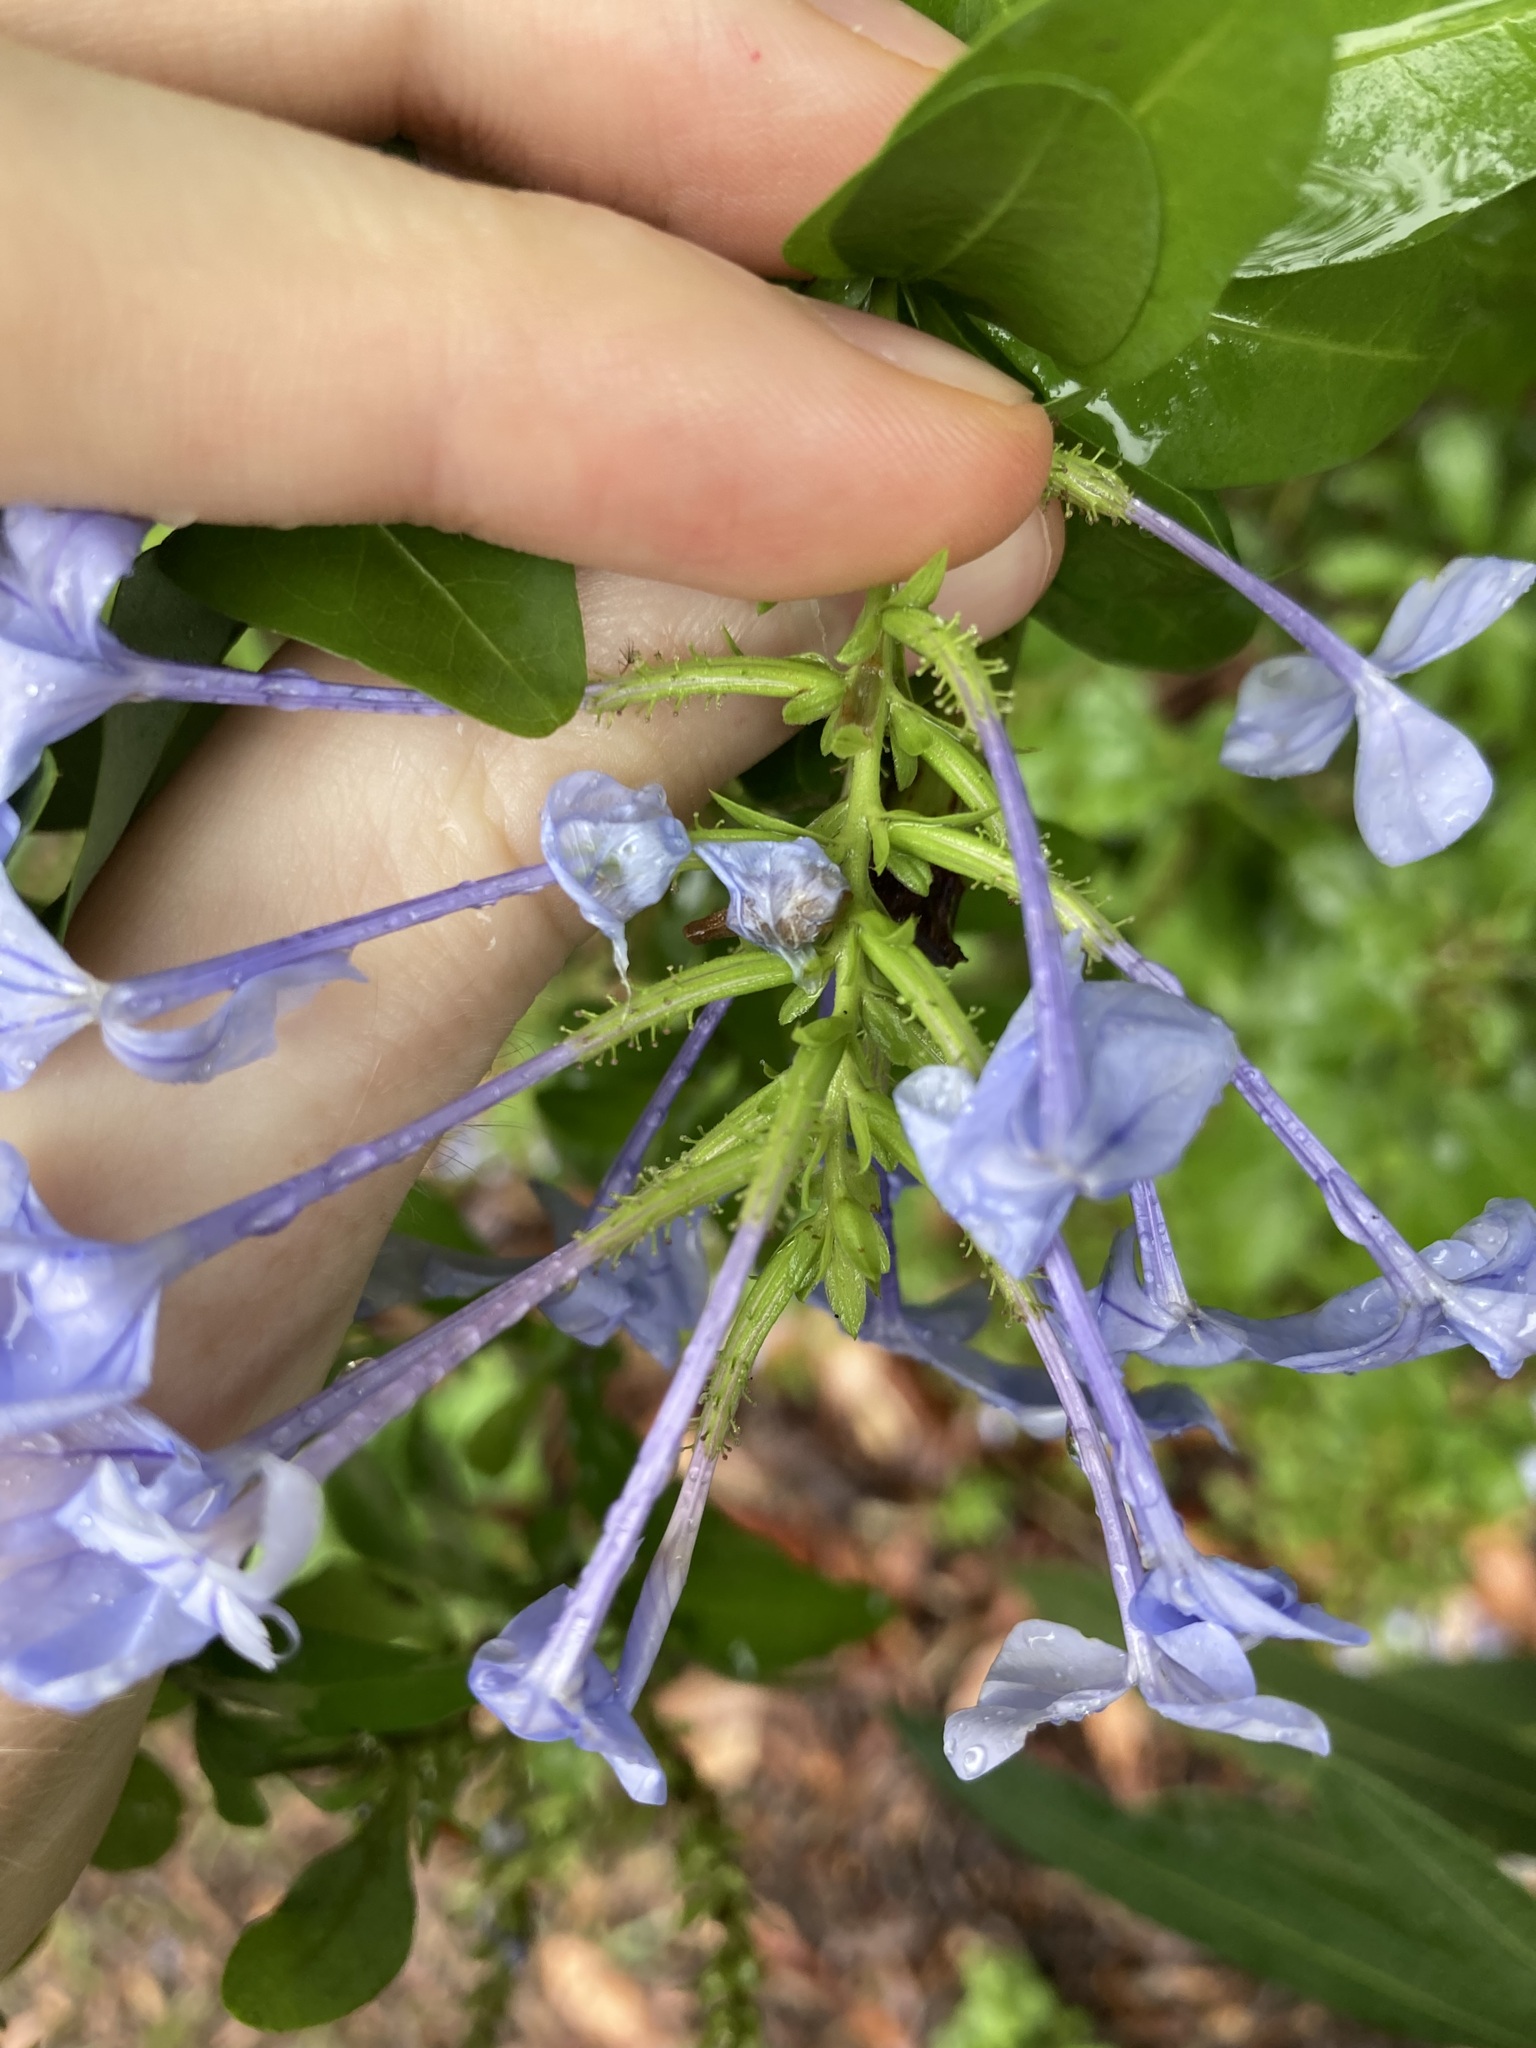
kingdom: Plantae
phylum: Tracheophyta
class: Magnoliopsida
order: Caryophyllales
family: Plumbaginaceae
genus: Plumbago
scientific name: Plumbago auriculata
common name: Cape leadwort
